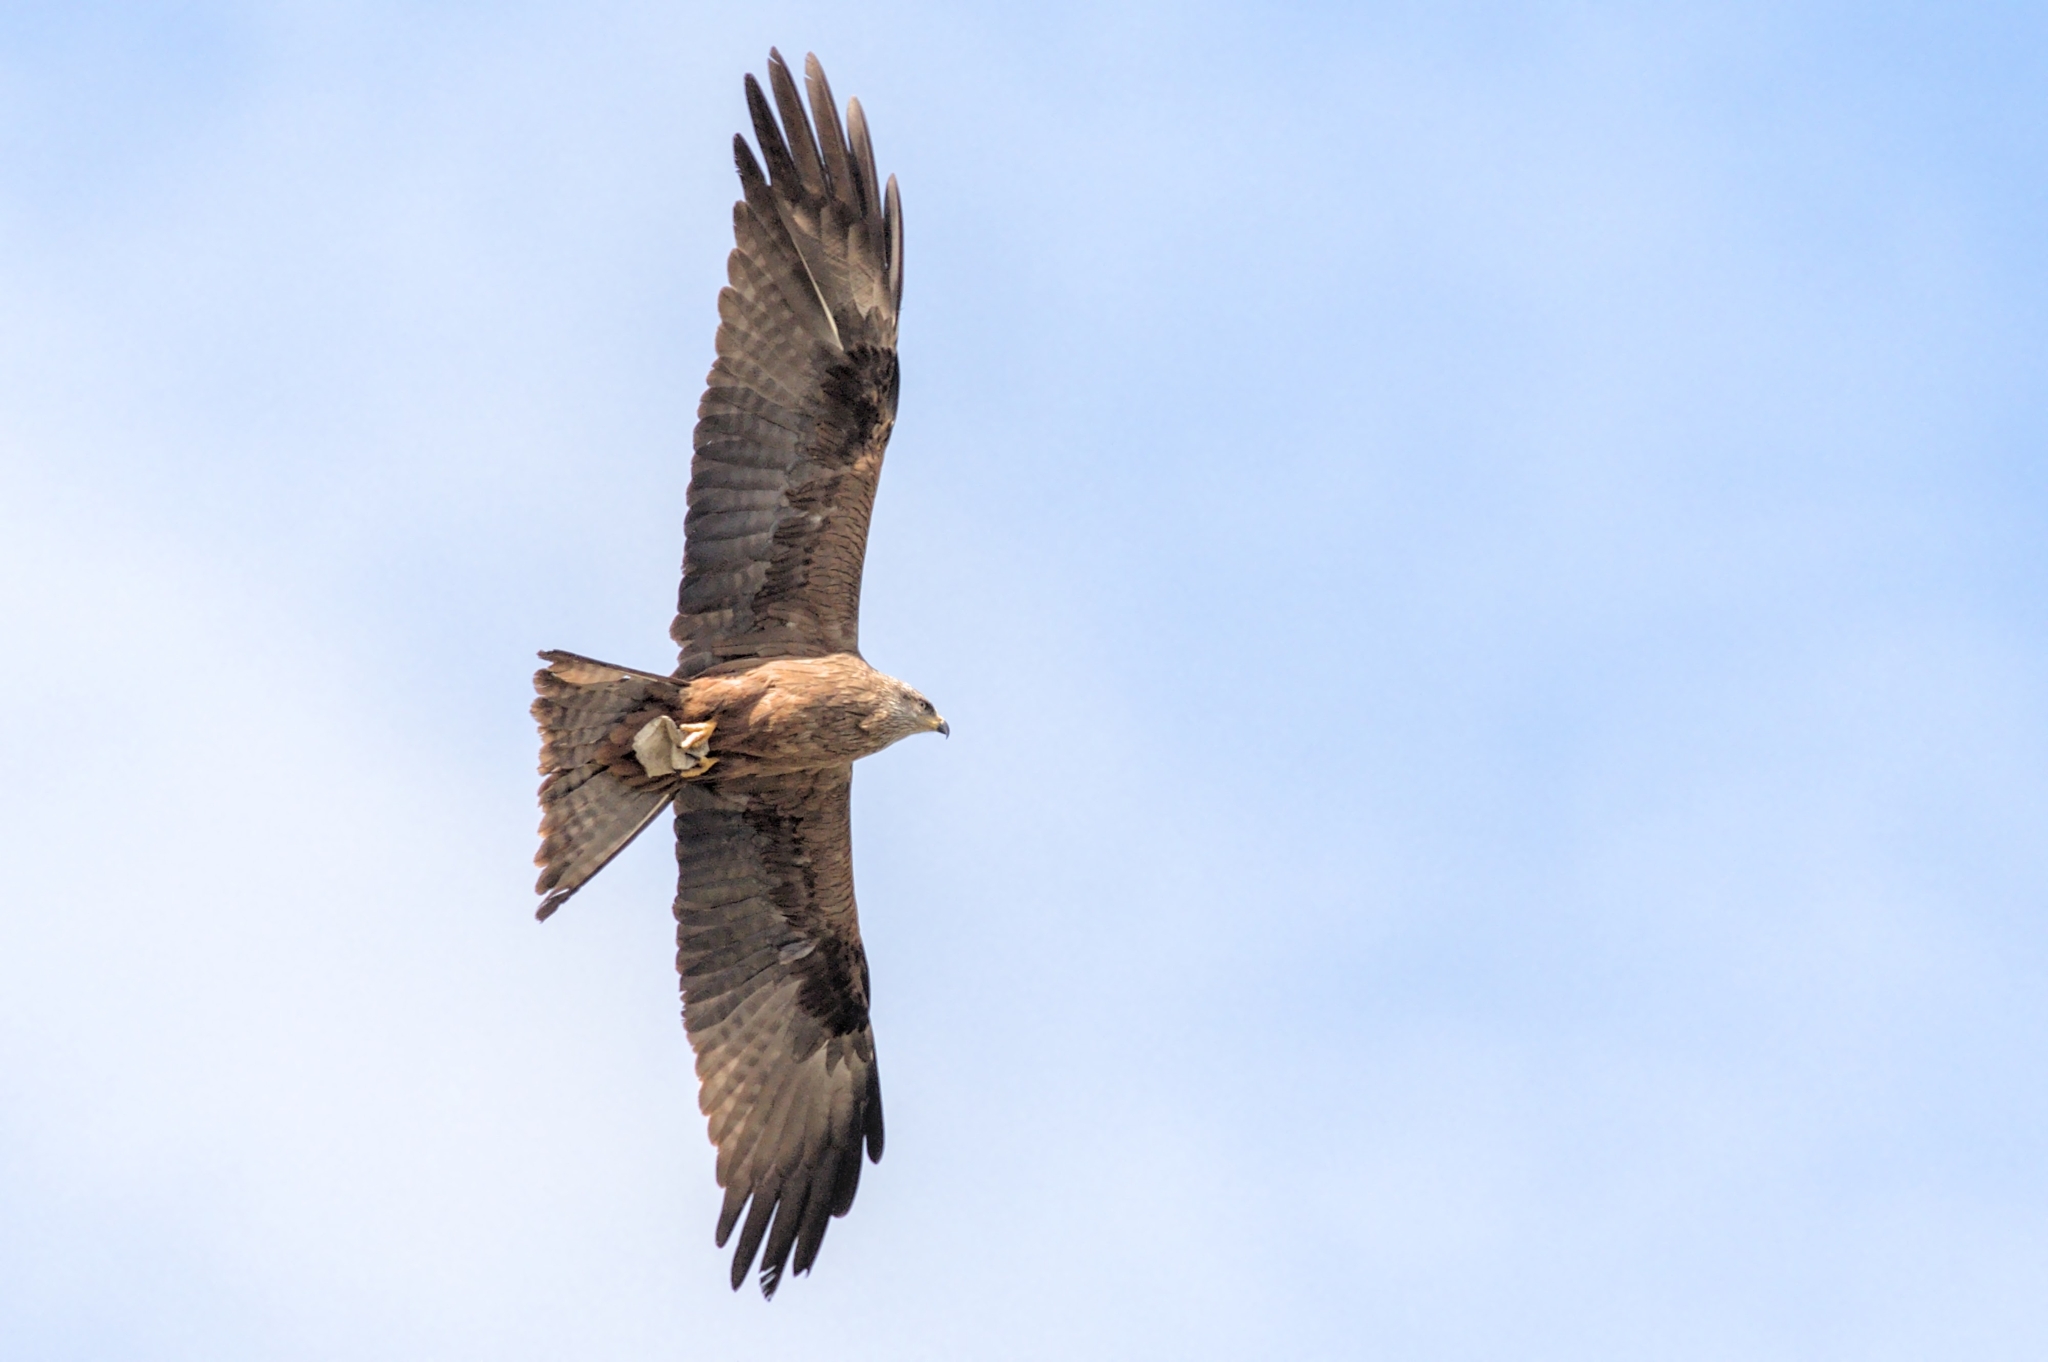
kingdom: Animalia
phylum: Chordata
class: Aves
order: Accipitriformes
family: Accipitridae
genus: Milvus
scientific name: Milvus migrans
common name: Black kite
